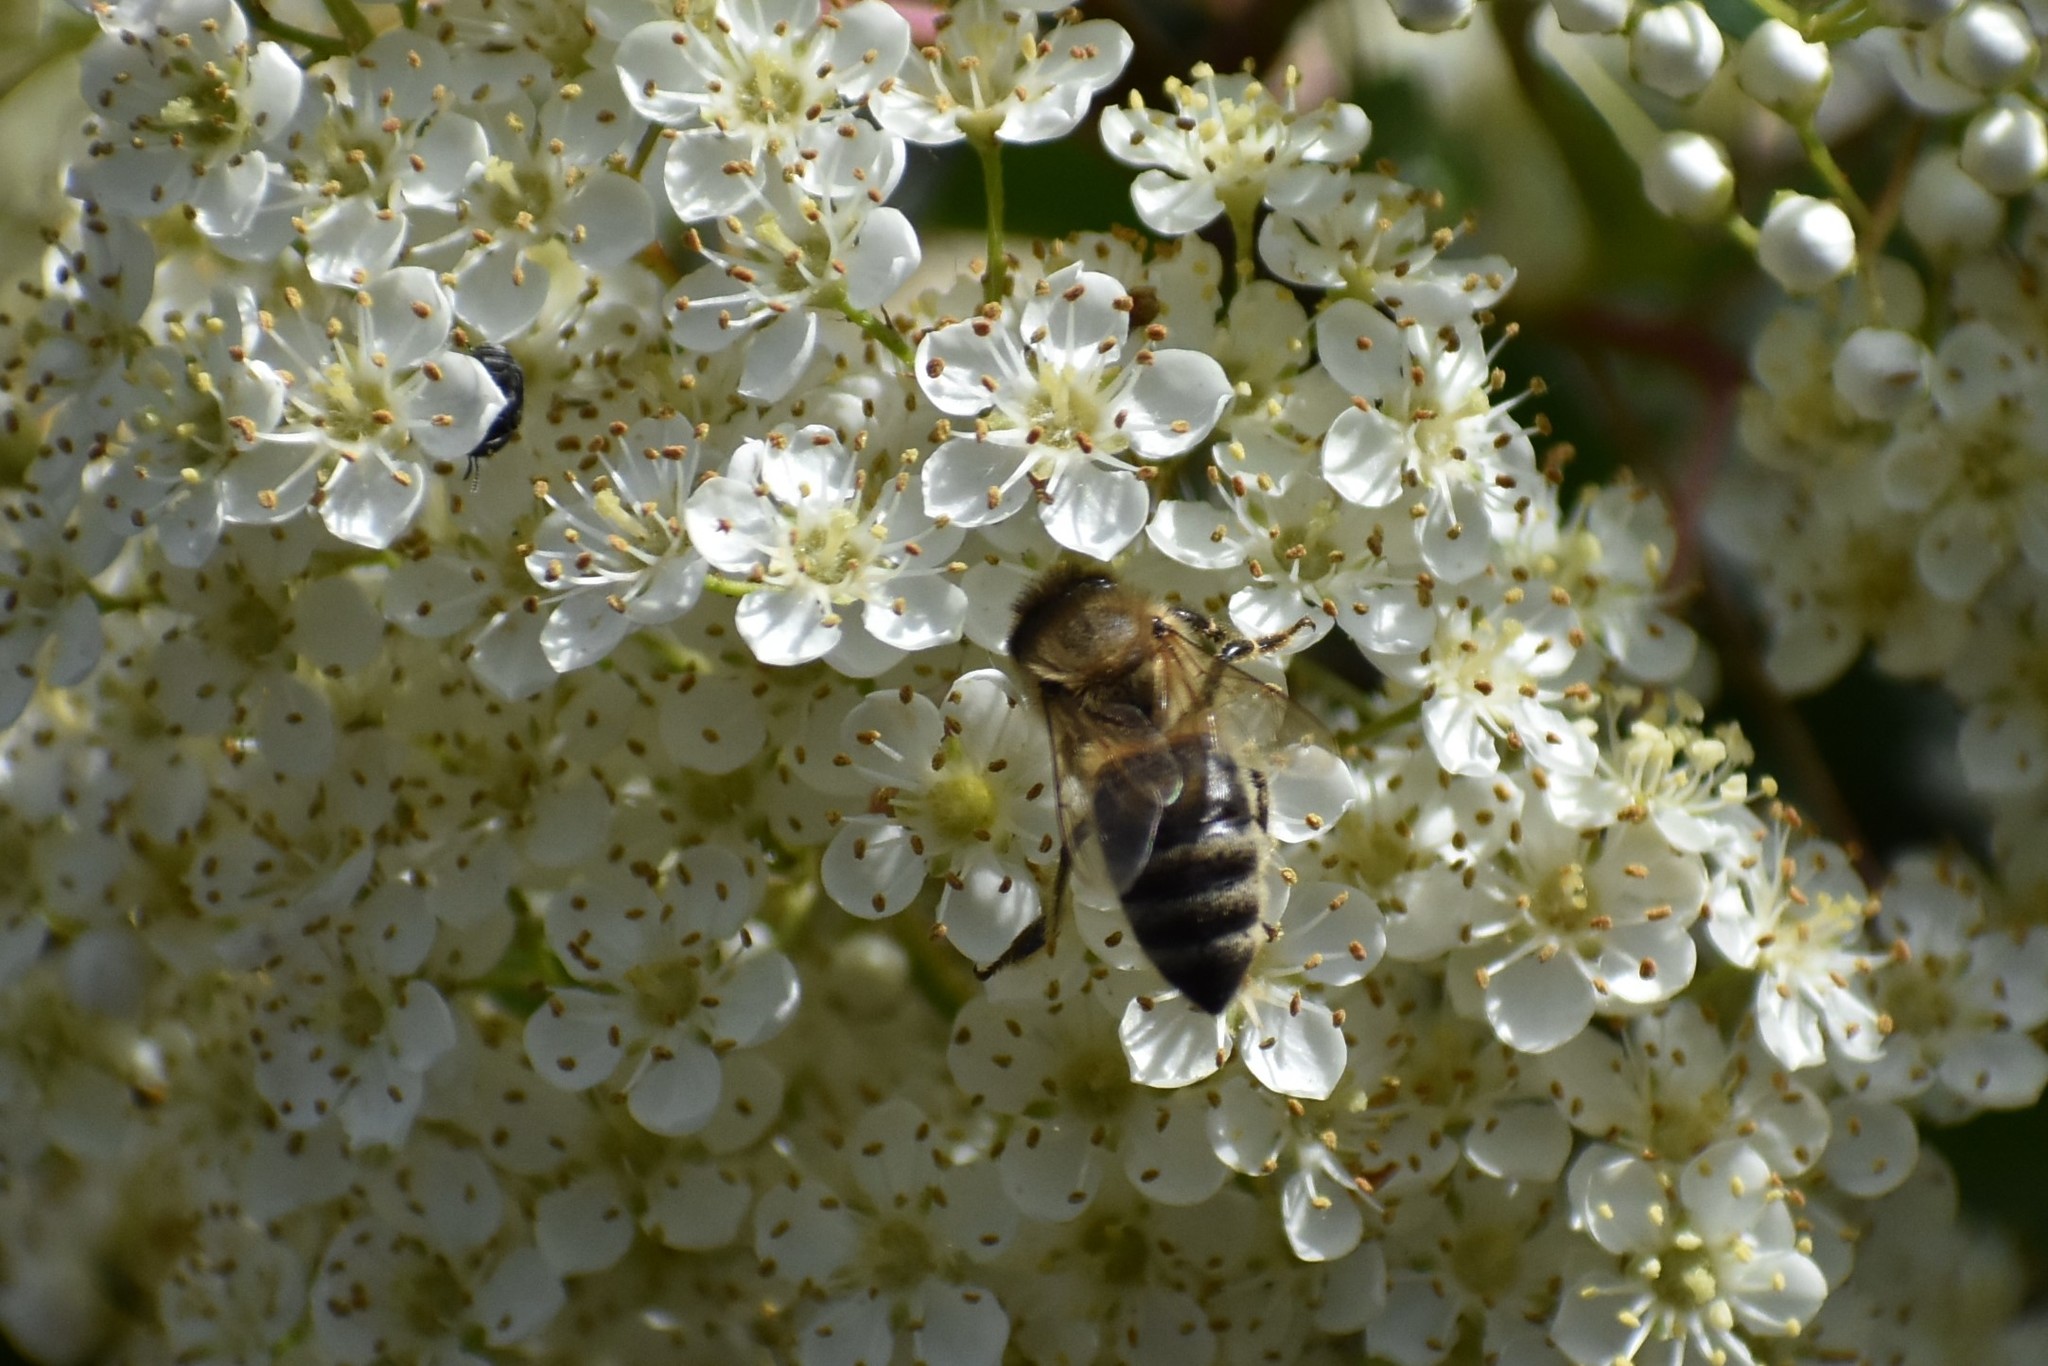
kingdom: Animalia
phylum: Arthropoda
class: Insecta
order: Hymenoptera
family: Apidae
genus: Apis
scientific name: Apis mellifera
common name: Honey bee
